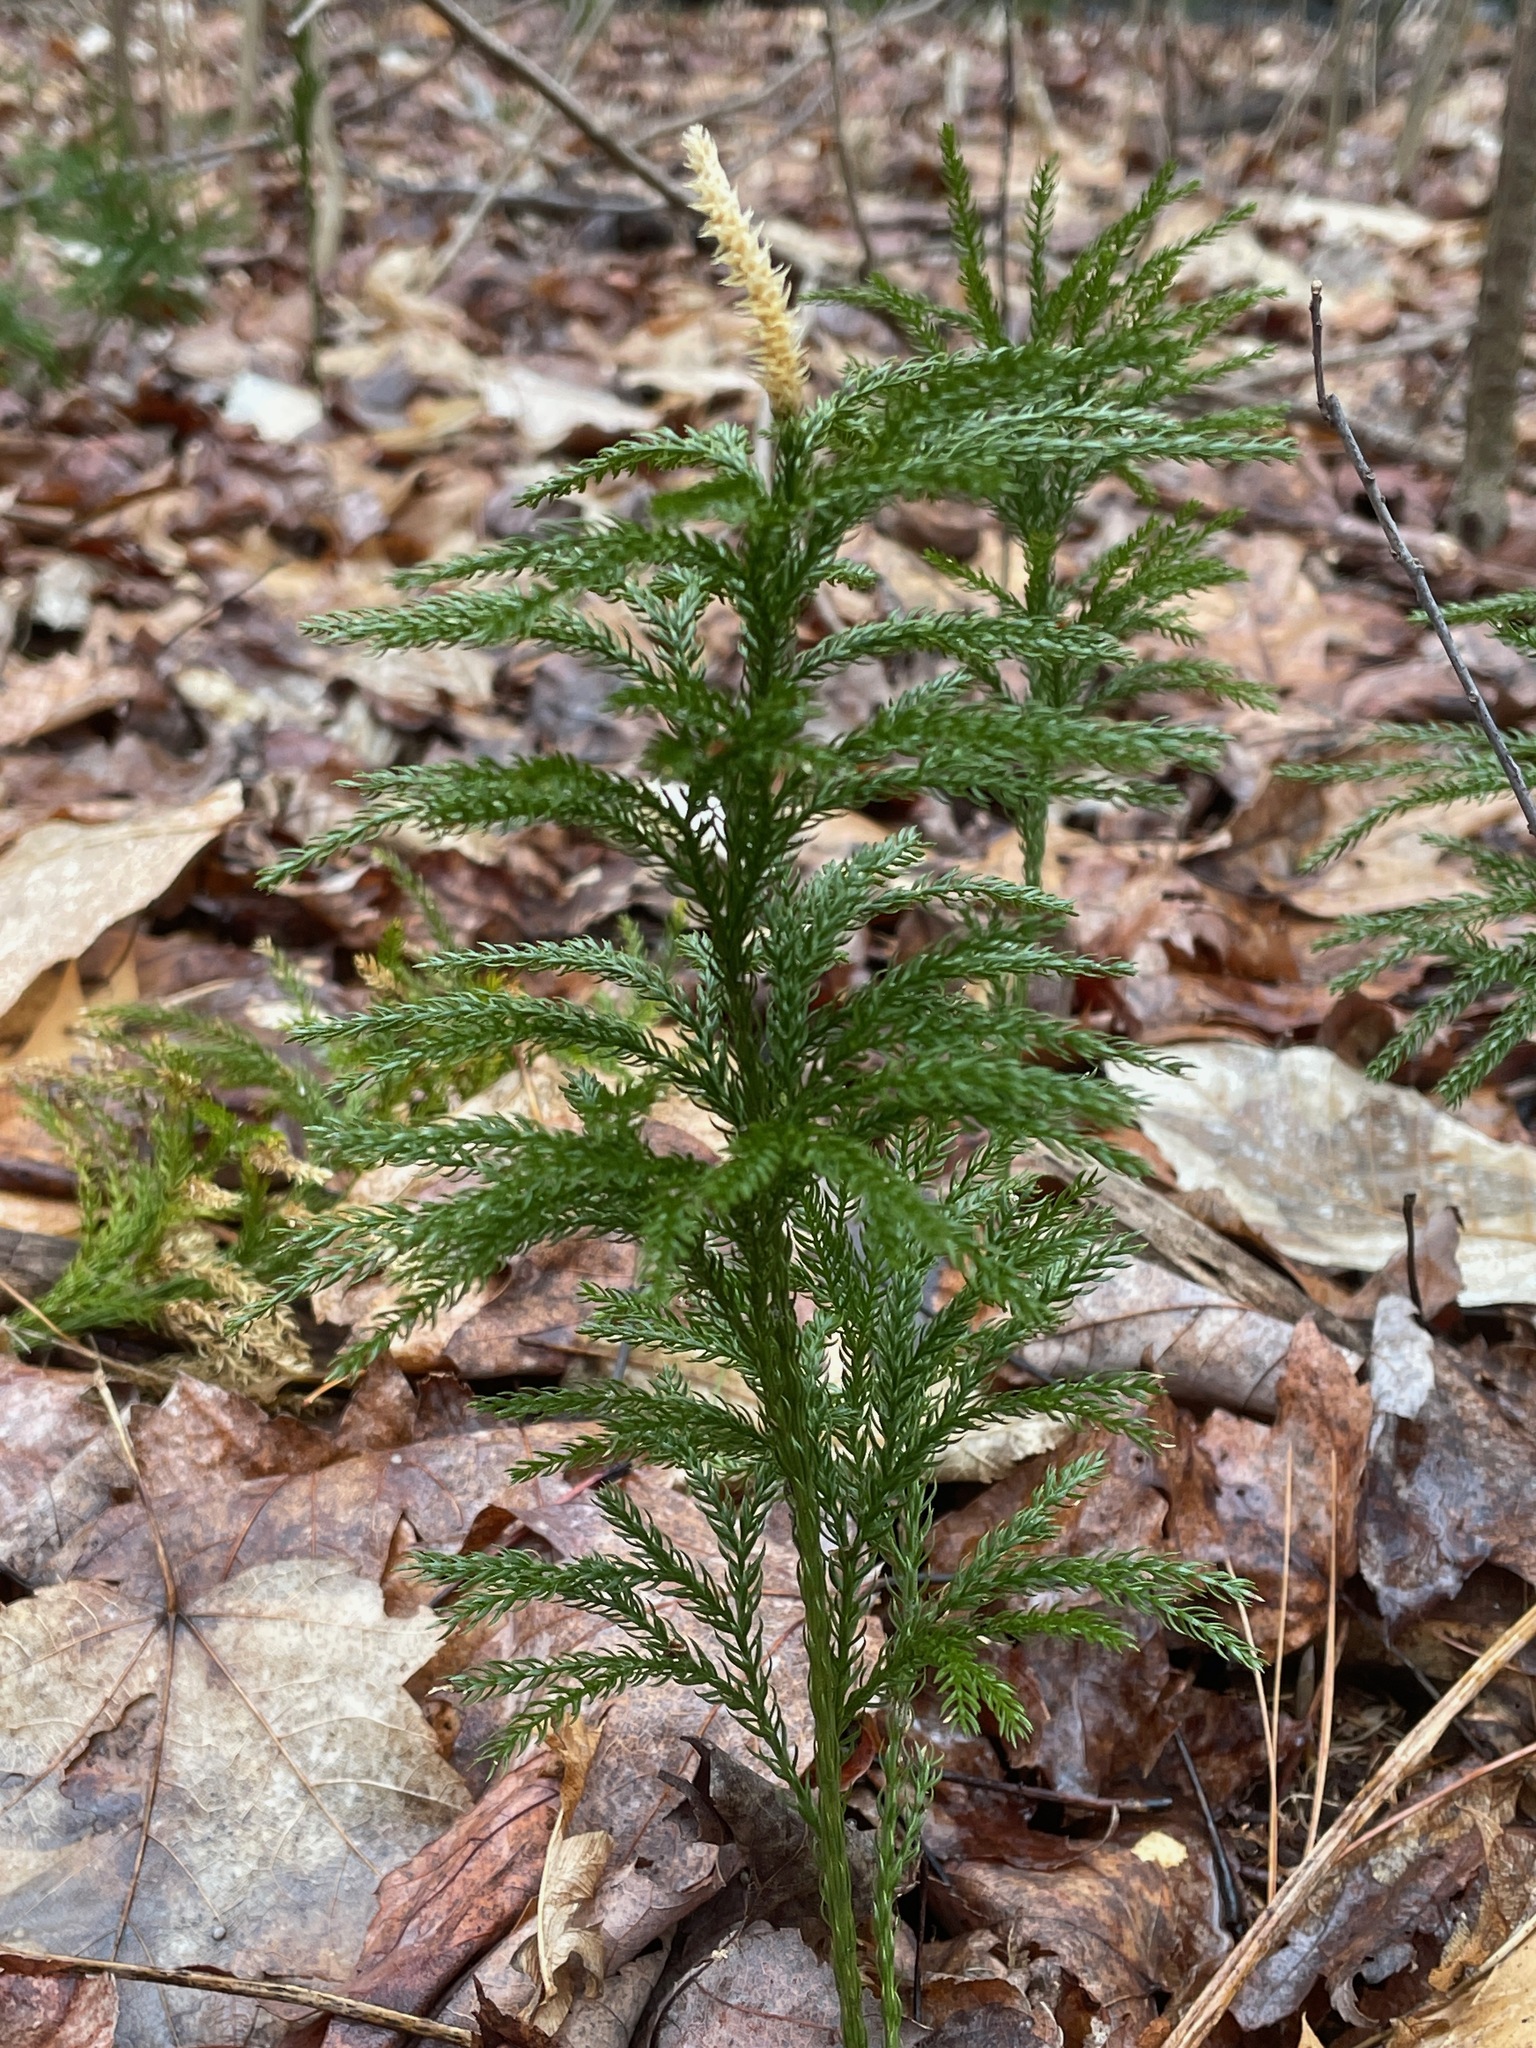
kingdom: Plantae
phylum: Tracheophyta
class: Lycopodiopsida
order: Lycopodiales
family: Lycopodiaceae
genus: Dendrolycopodium
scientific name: Dendrolycopodium obscurum
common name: Common ground-pine
